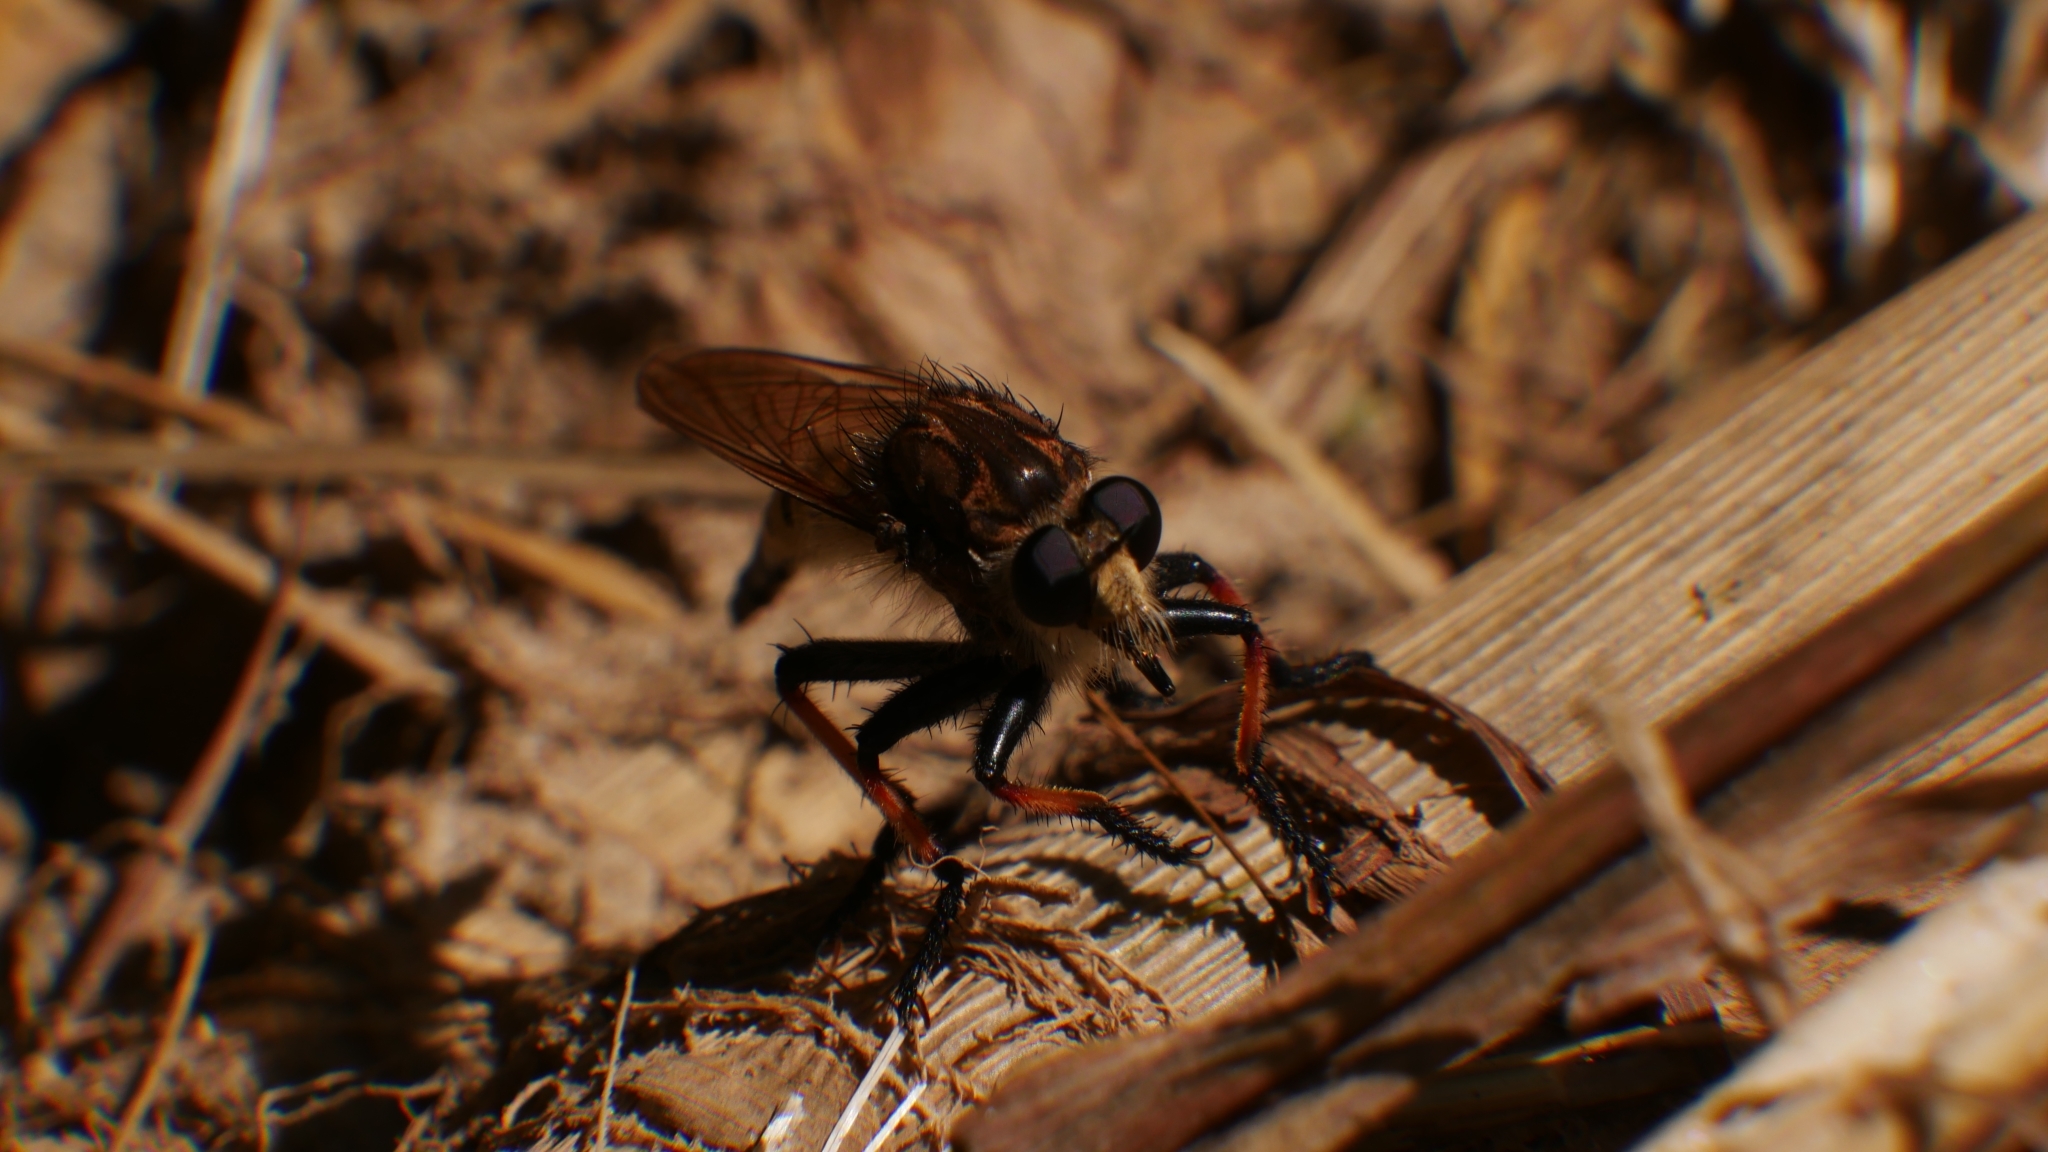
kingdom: Animalia
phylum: Arthropoda
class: Insecta
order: Diptera
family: Asilidae
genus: Promachus
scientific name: Promachus rufipes
